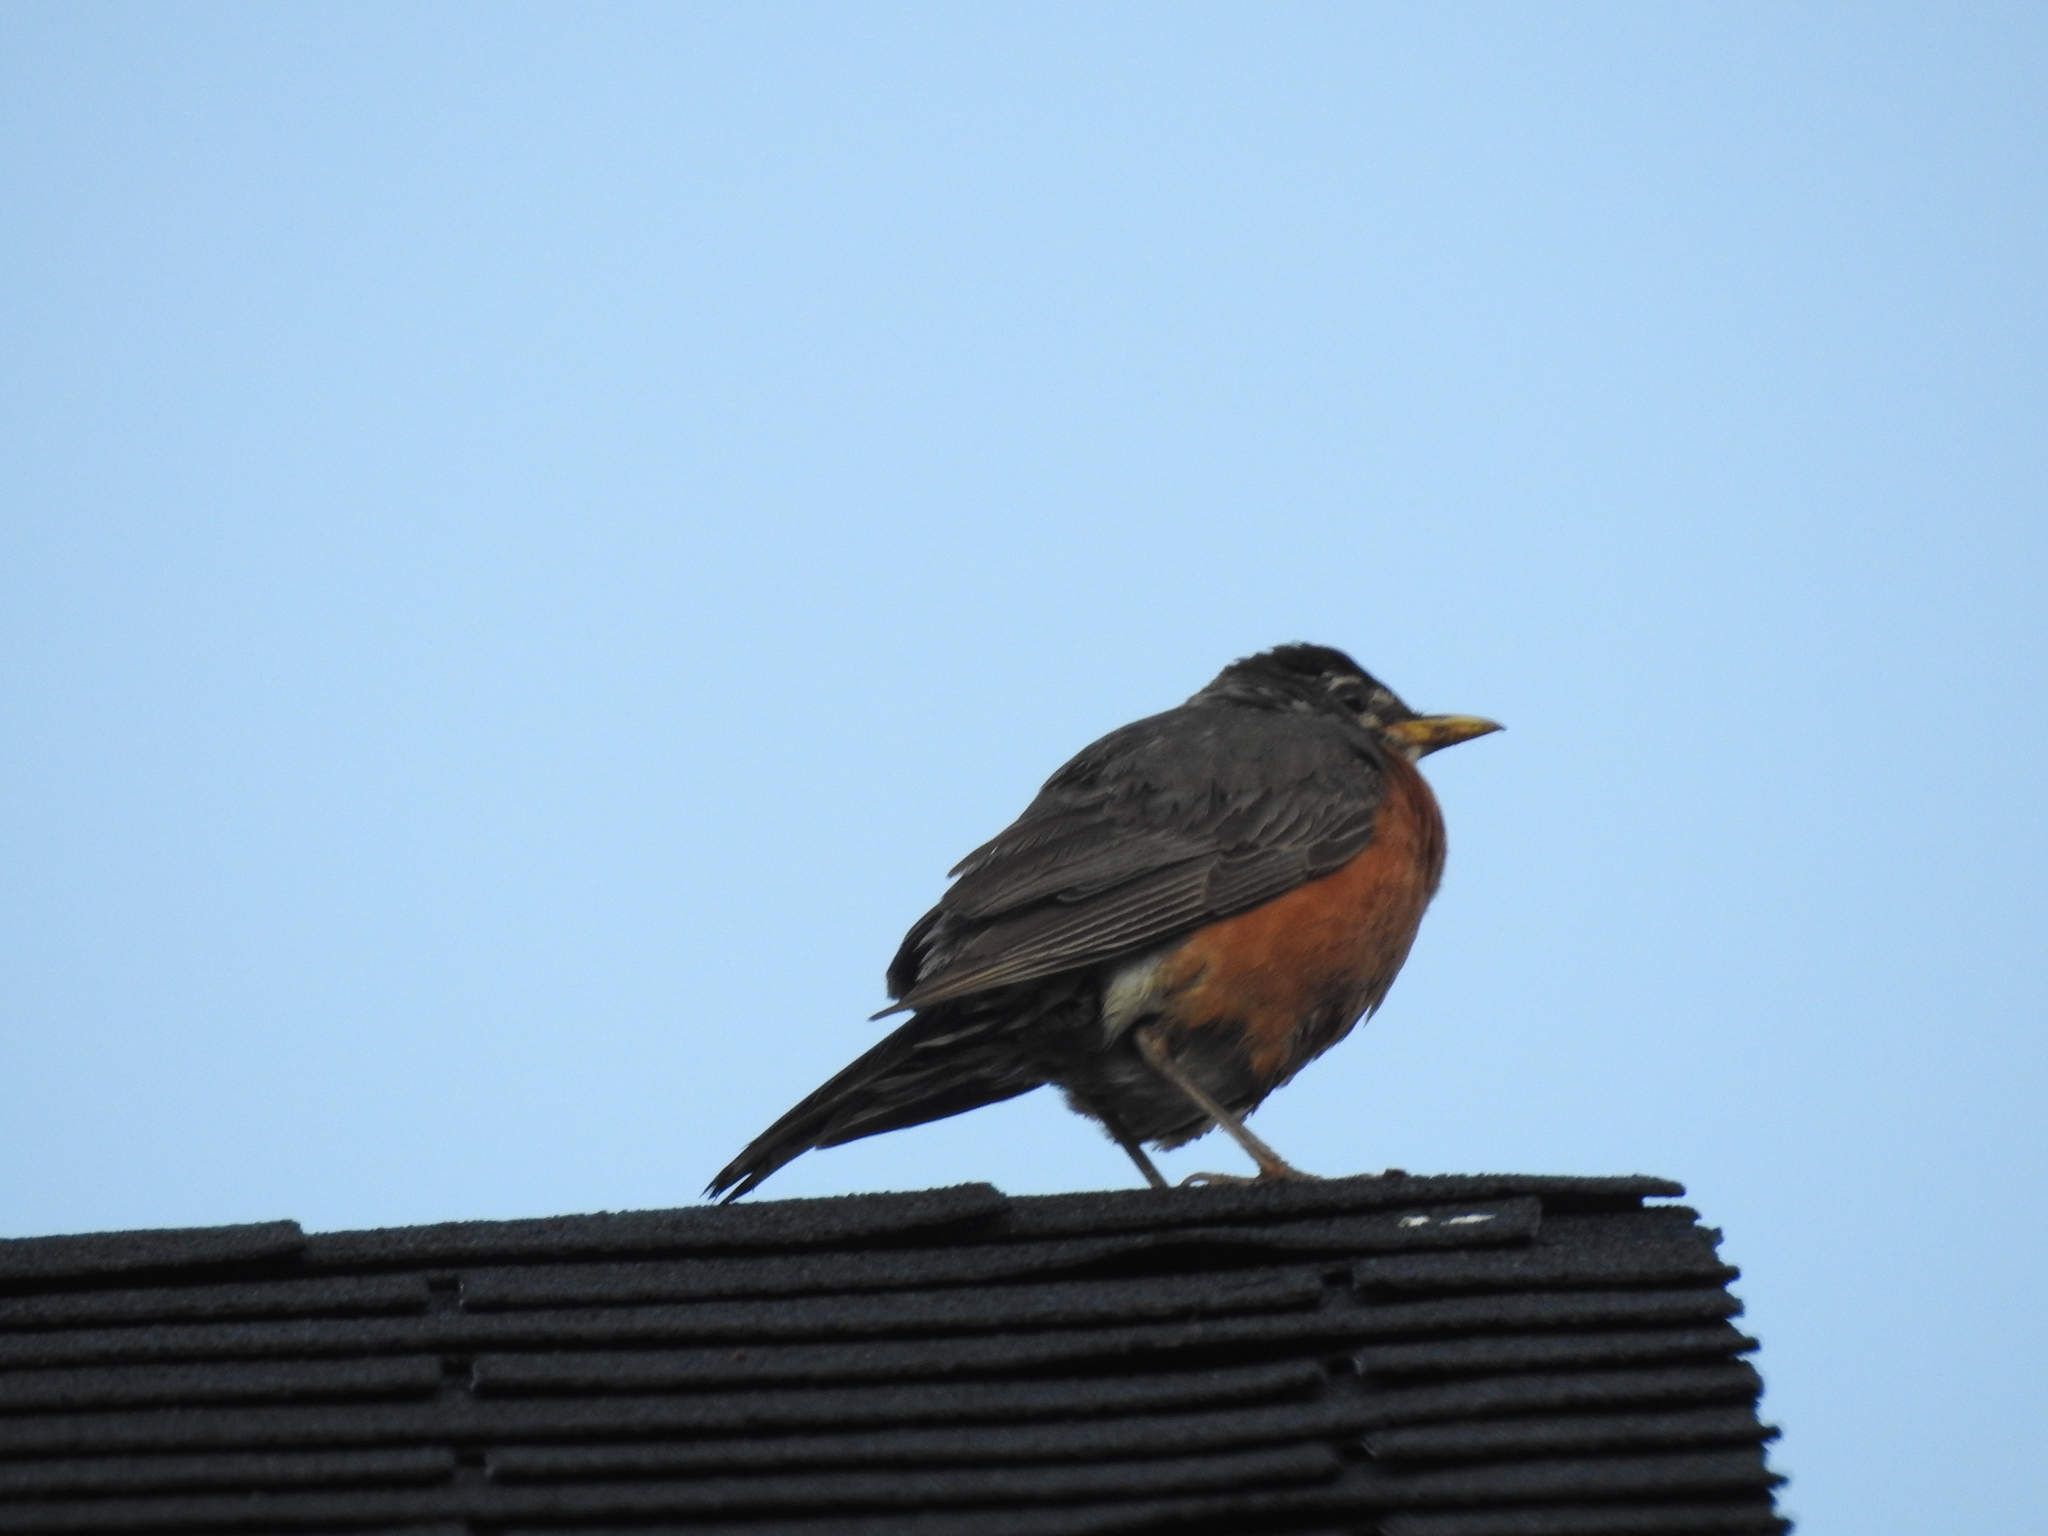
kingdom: Animalia
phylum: Chordata
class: Aves
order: Passeriformes
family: Turdidae
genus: Turdus
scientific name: Turdus migratorius
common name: American robin
